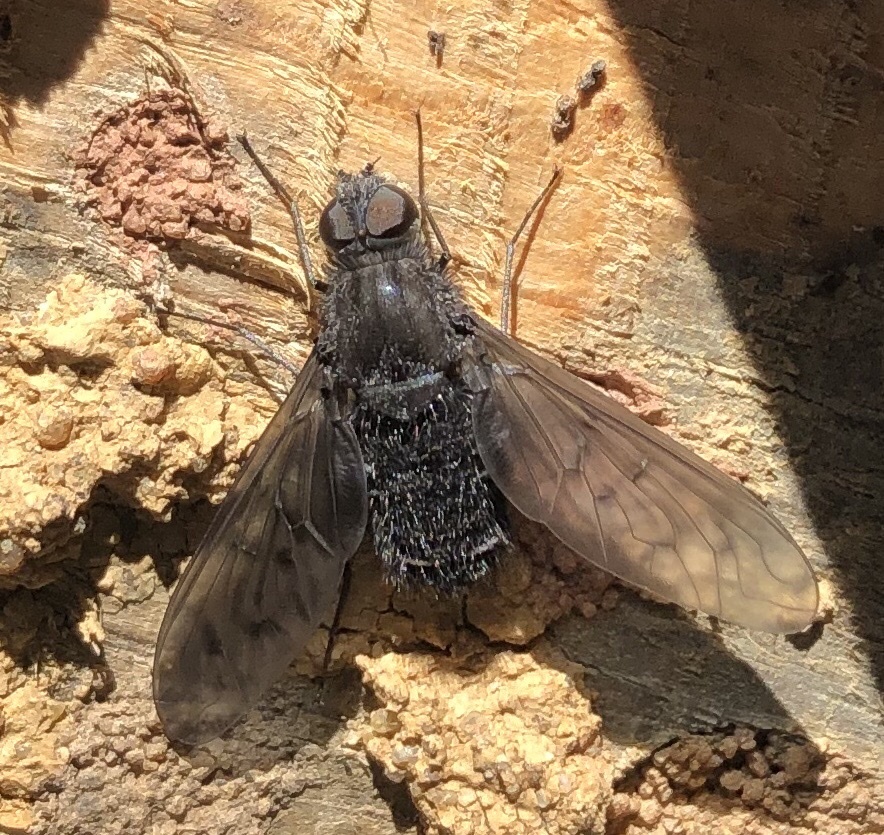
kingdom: Animalia
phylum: Arthropoda
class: Insecta
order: Diptera
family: Bombyliidae
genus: Anthrax
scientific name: Anthrax anthrax
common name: Anthracite bee-fly
